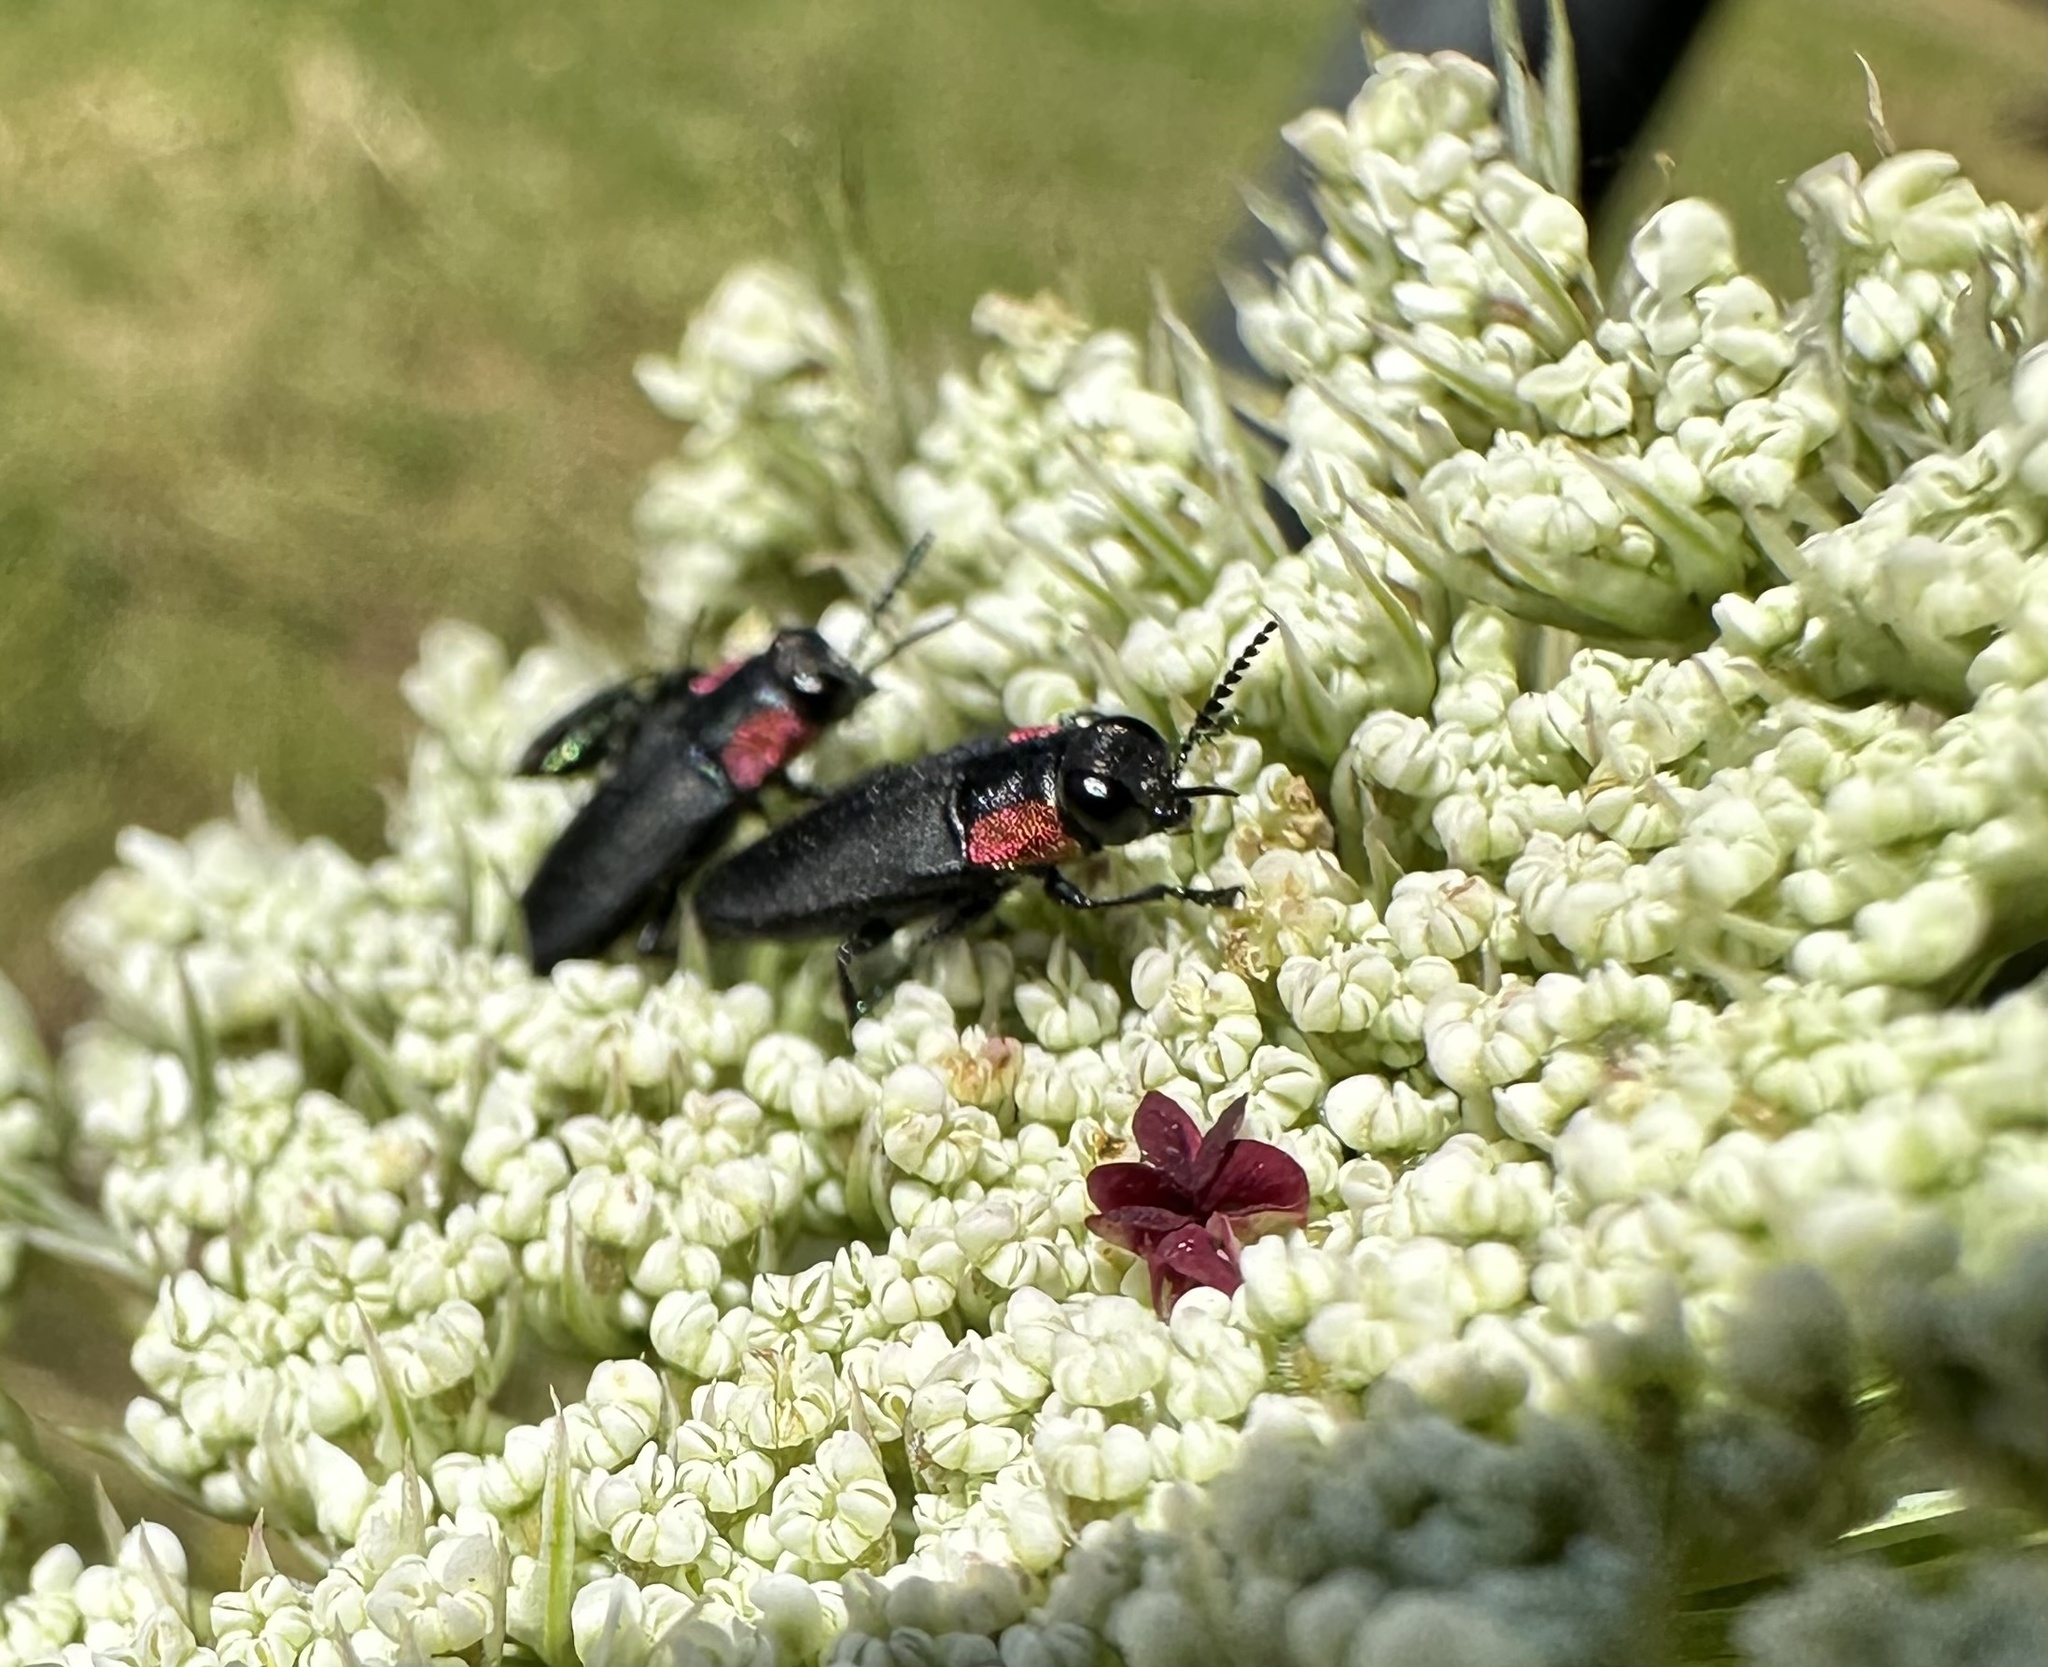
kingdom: Animalia
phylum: Arthropoda
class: Insecta
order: Coleoptera
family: Buprestidae
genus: Romanophora
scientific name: Romanophora verecunda
